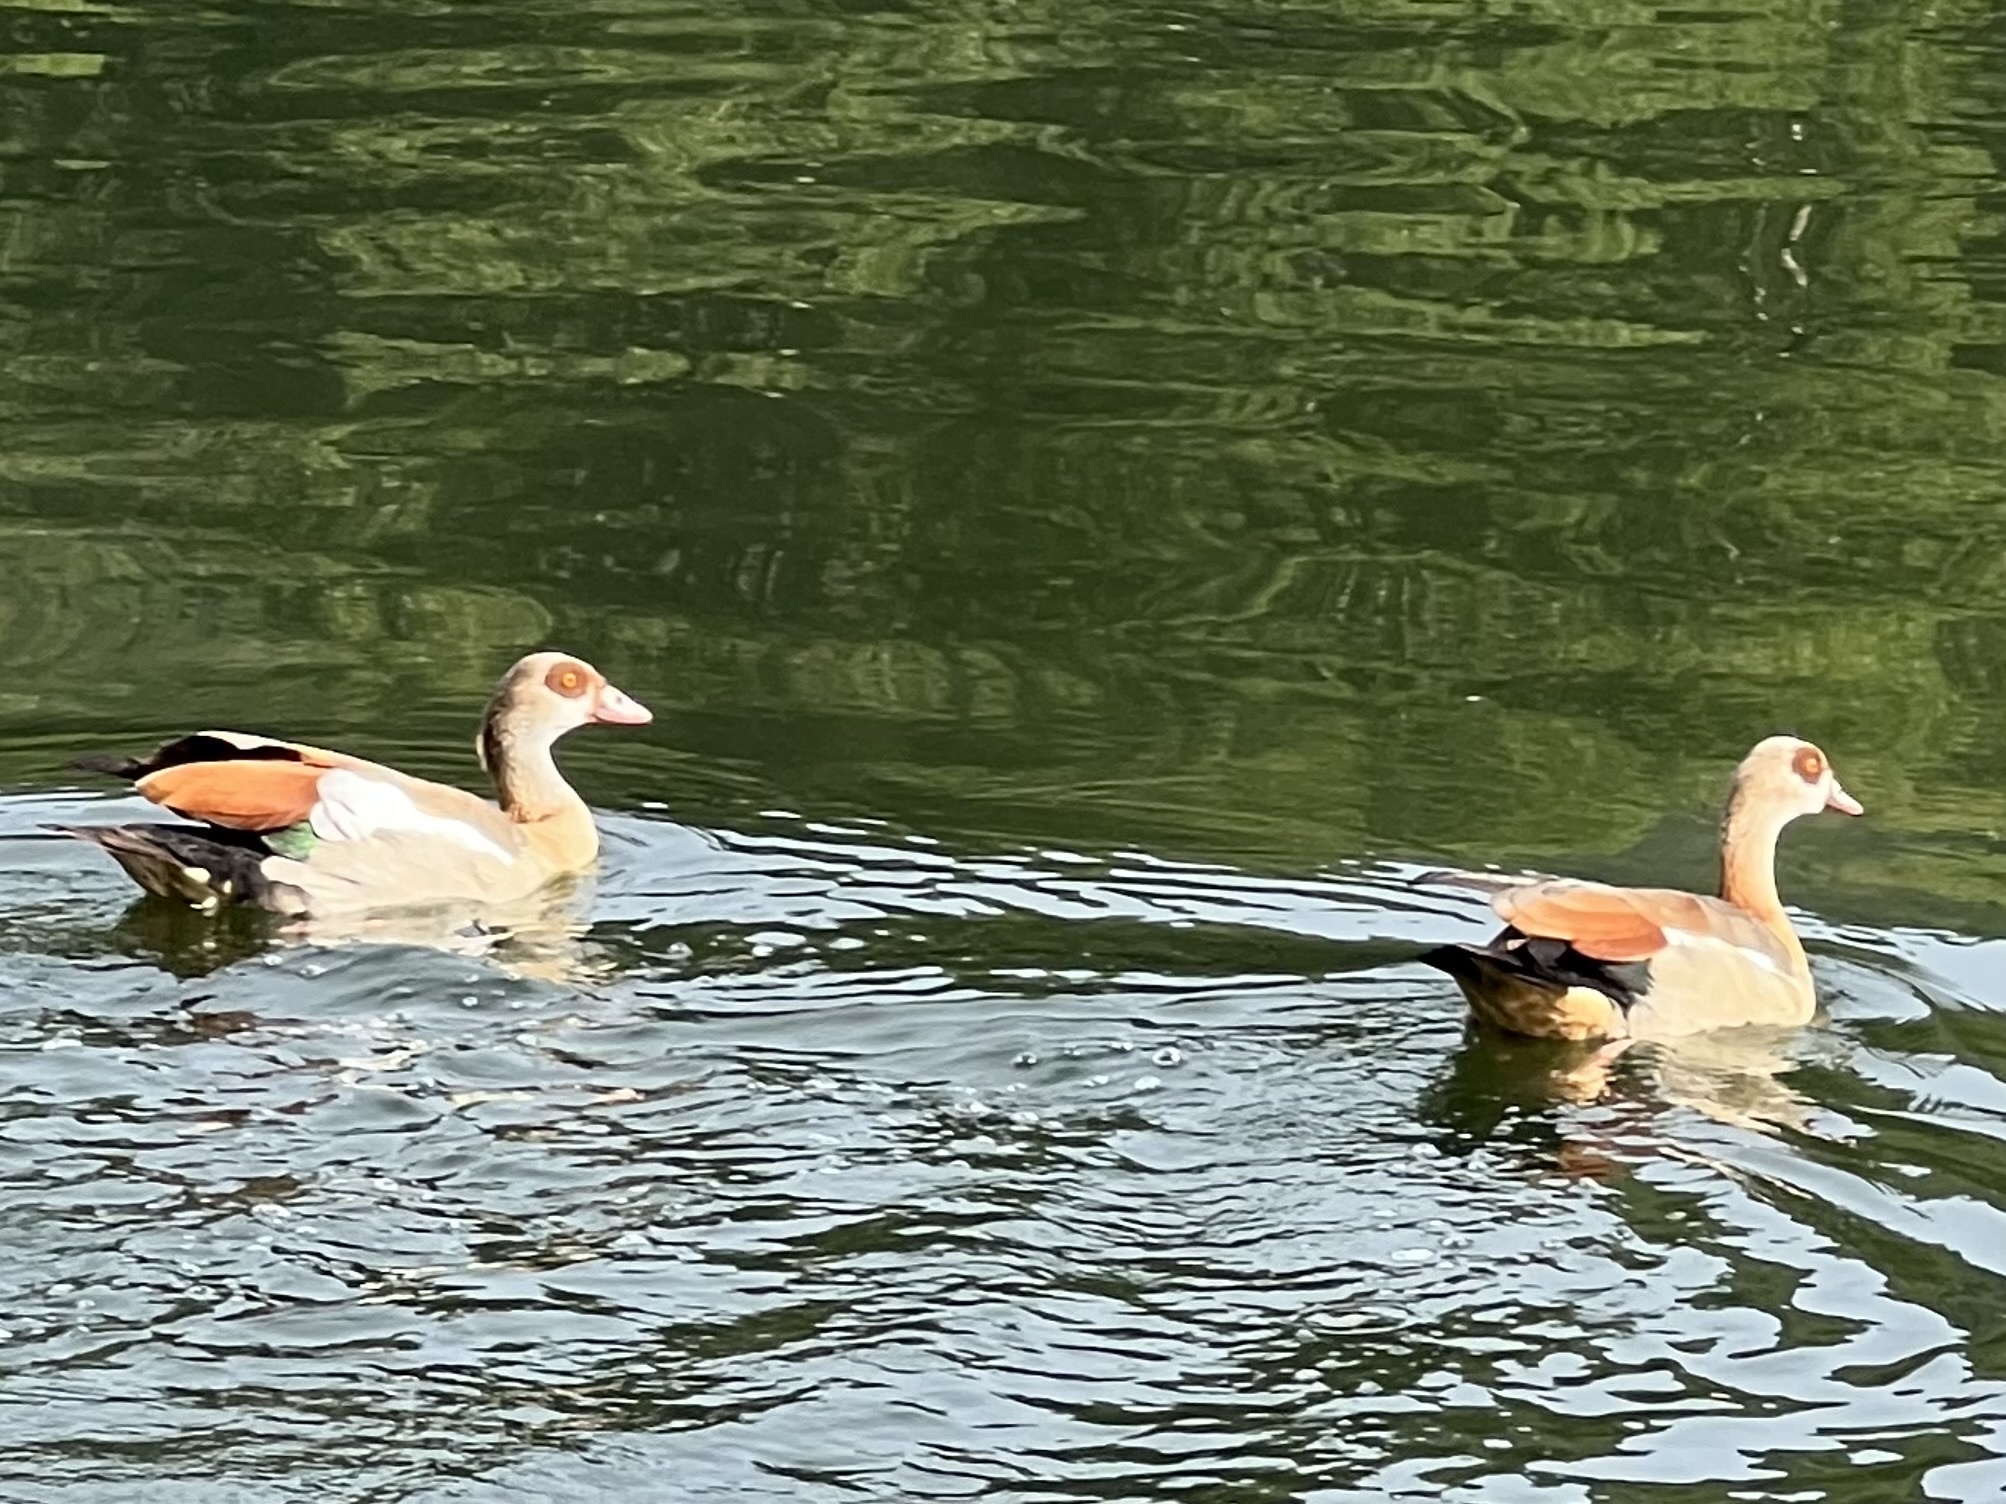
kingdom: Animalia
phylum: Chordata
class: Aves
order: Anseriformes
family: Anatidae
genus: Alopochen
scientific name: Alopochen aegyptiaca
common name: Egyptian goose
